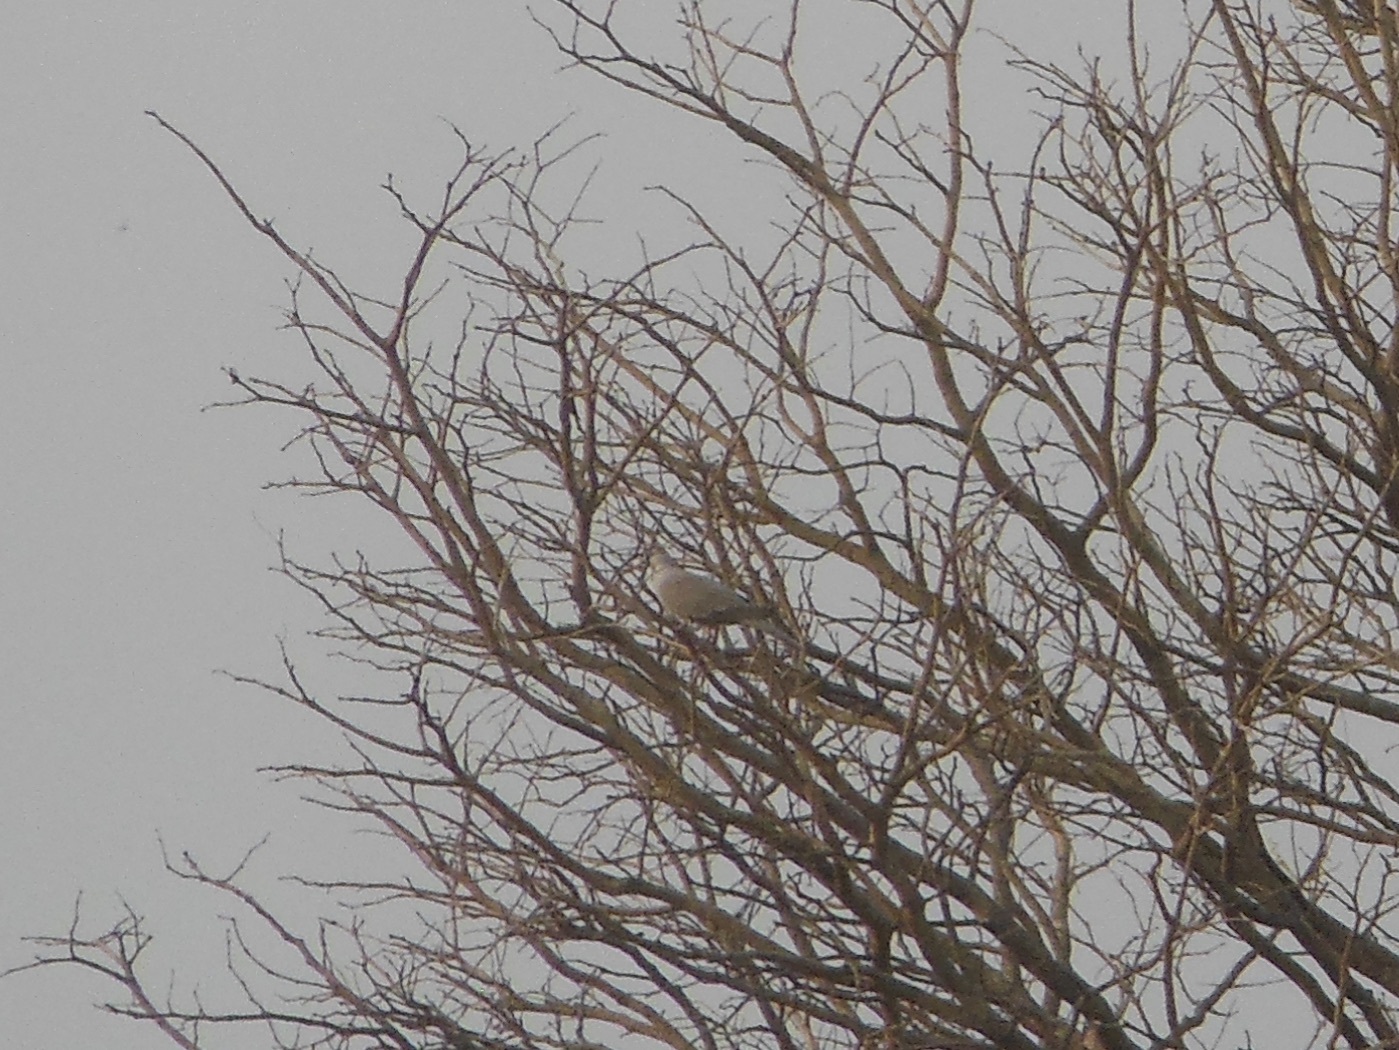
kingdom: Animalia
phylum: Chordata
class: Aves
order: Columbiformes
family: Columbidae
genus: Streptopelia
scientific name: Streptopelia tranquebarica
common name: Red turtle dove
